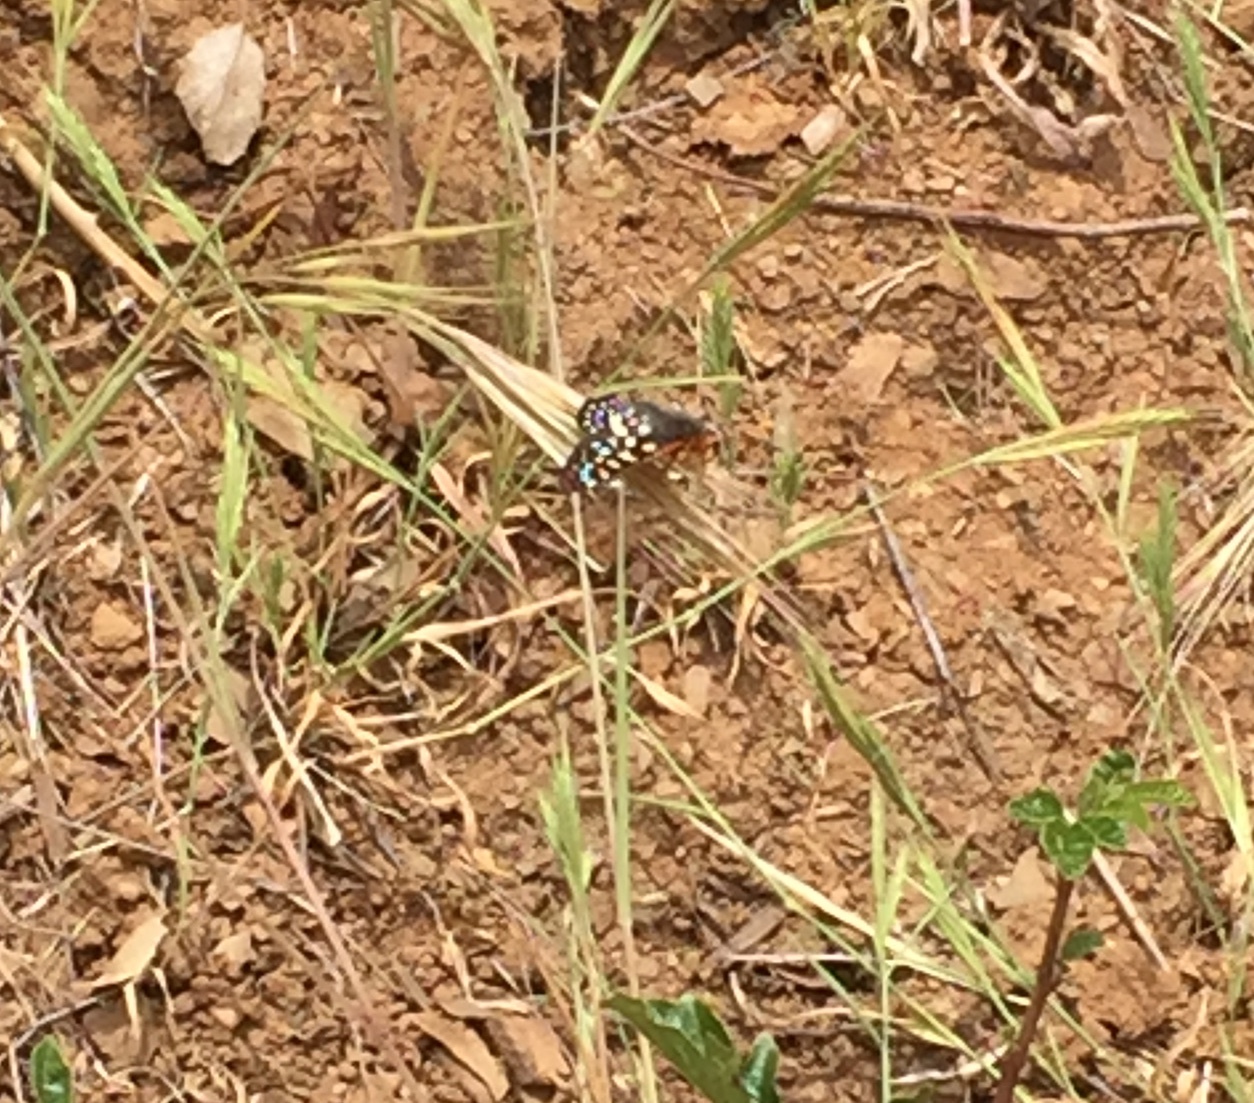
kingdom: Animalia
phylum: Arthropoda
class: Insecta
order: Lepidoptera
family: Nymphalidae
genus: Occidryas
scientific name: Occidryas chalcedona
